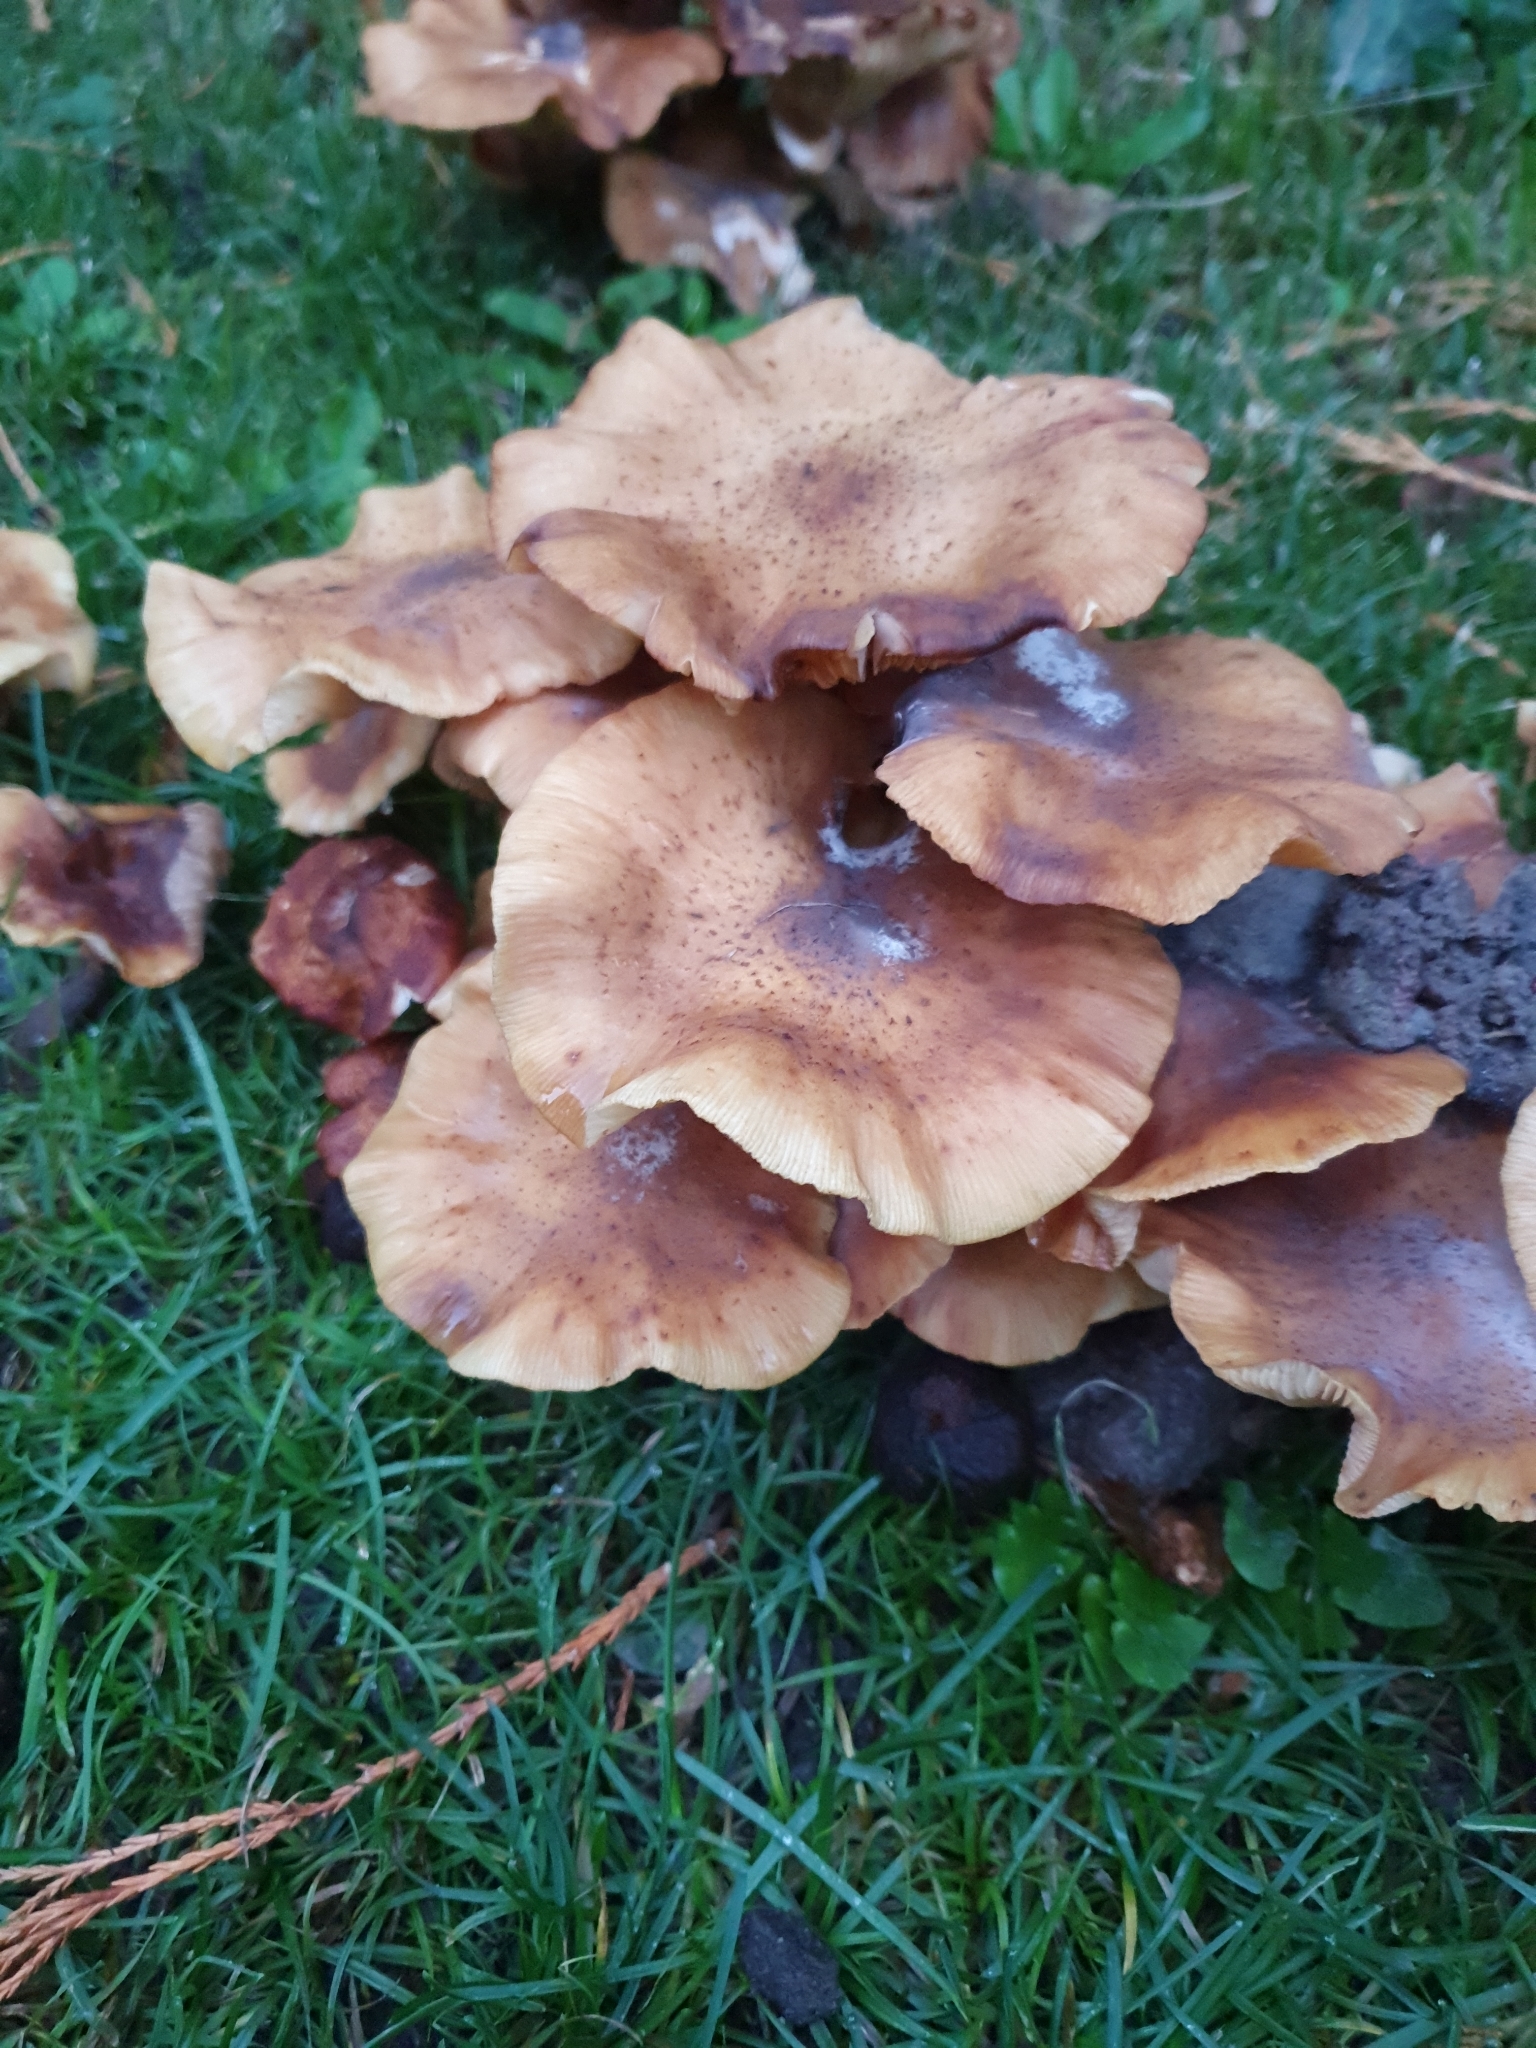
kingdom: Fungi
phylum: Basidiomycota
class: Agaricomycetes
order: Agaricales
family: Physalacriaceae
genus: Armillaria
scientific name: Armillaria mellea
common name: Honey fungus
